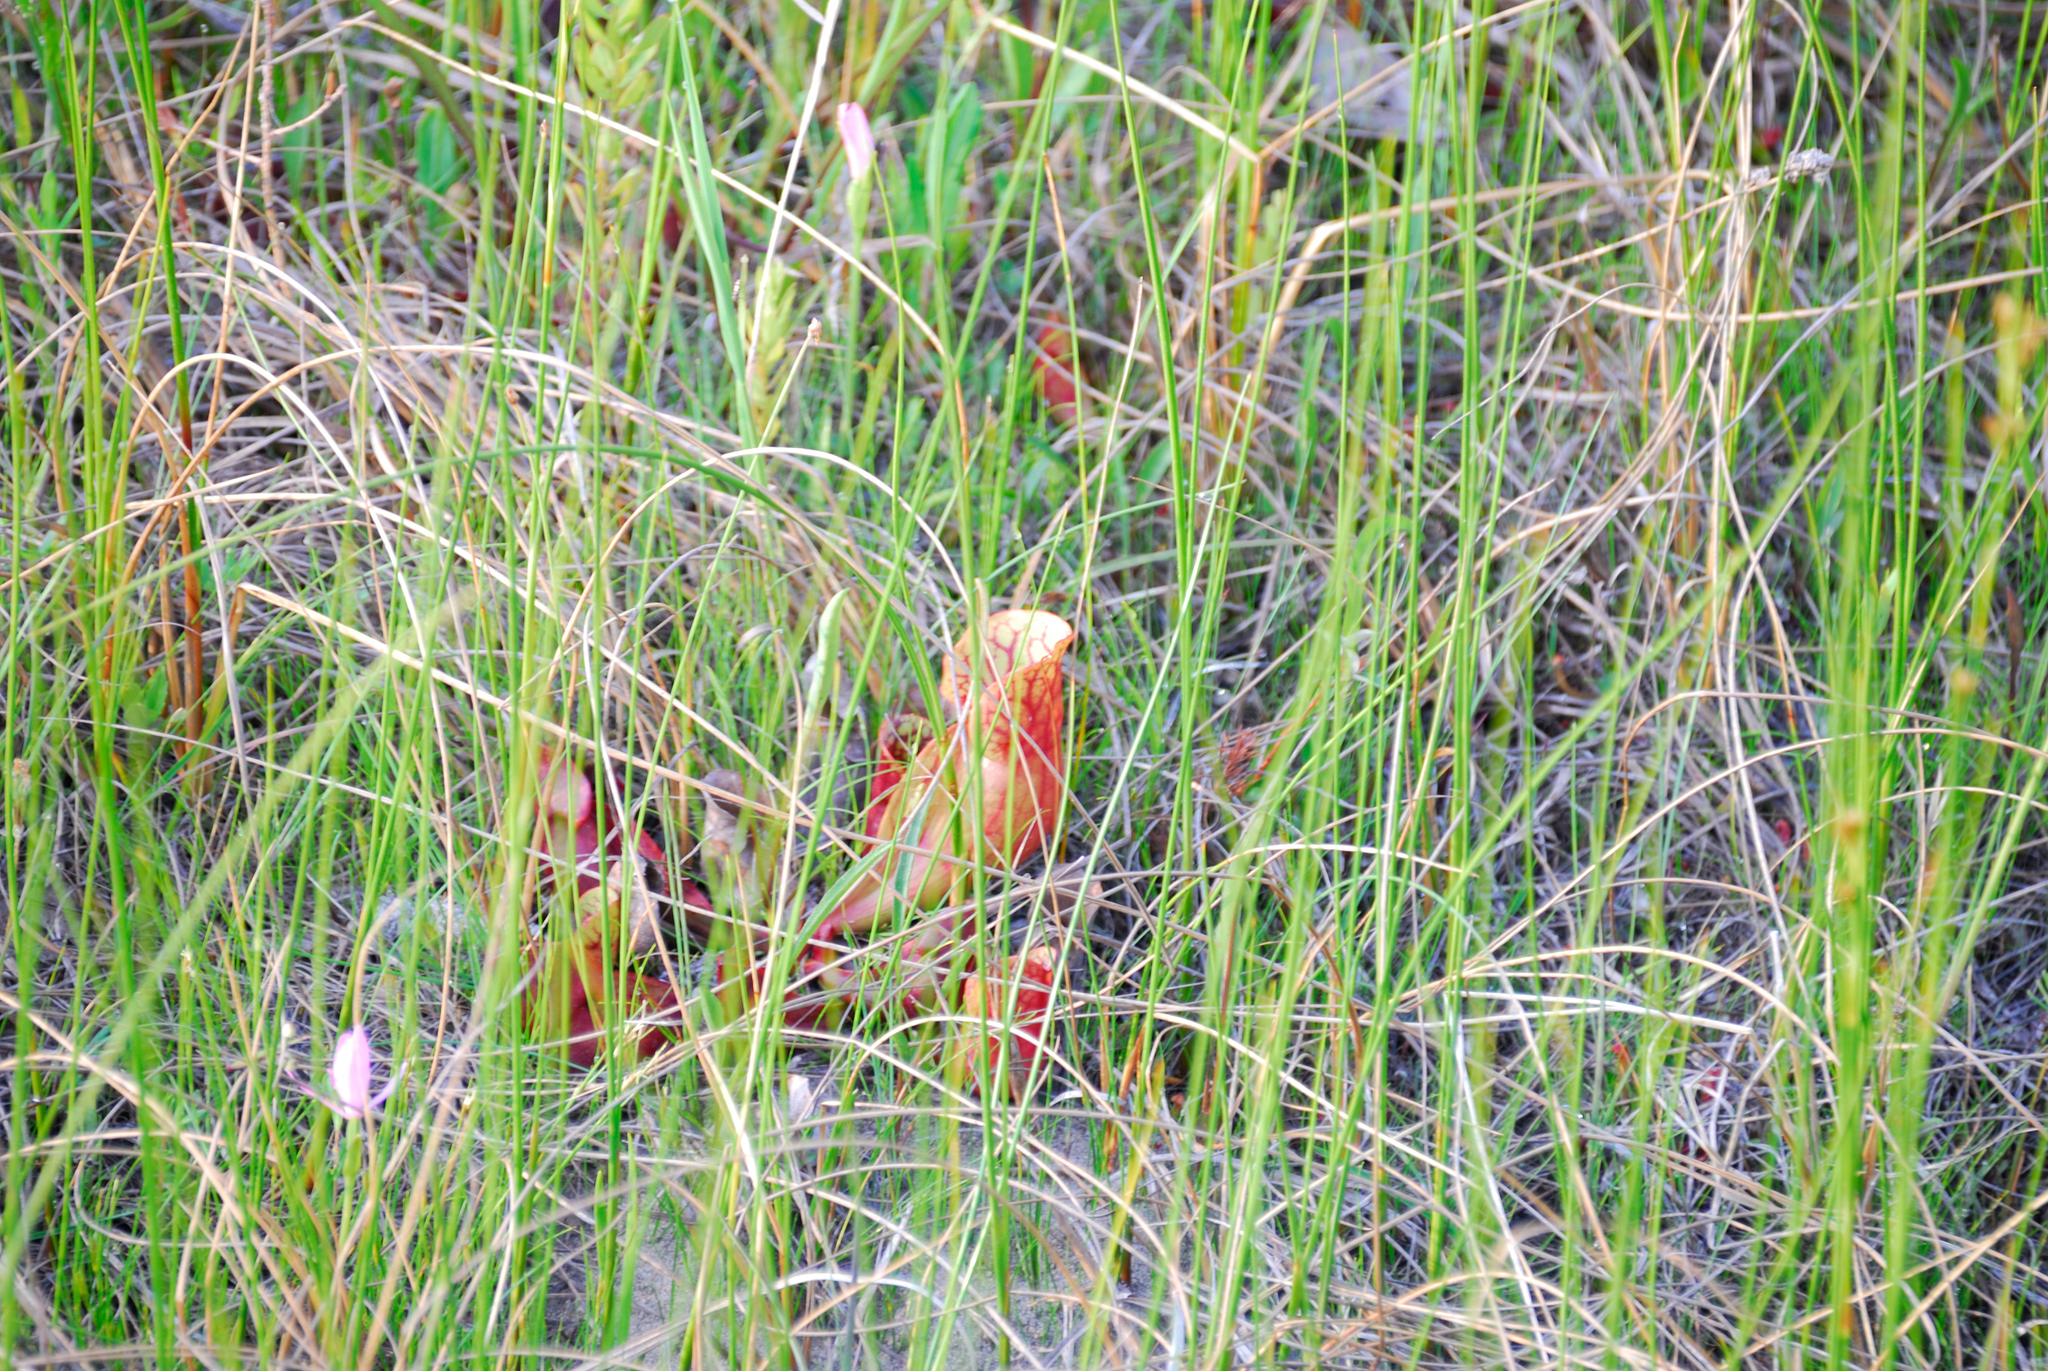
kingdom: Plantae
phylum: Tracheophyta
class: Magnoliopsida
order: Ericales
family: Sarraceniaceae
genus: Sarracenia
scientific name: Sarracenia purpurea
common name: Pitcherplant
